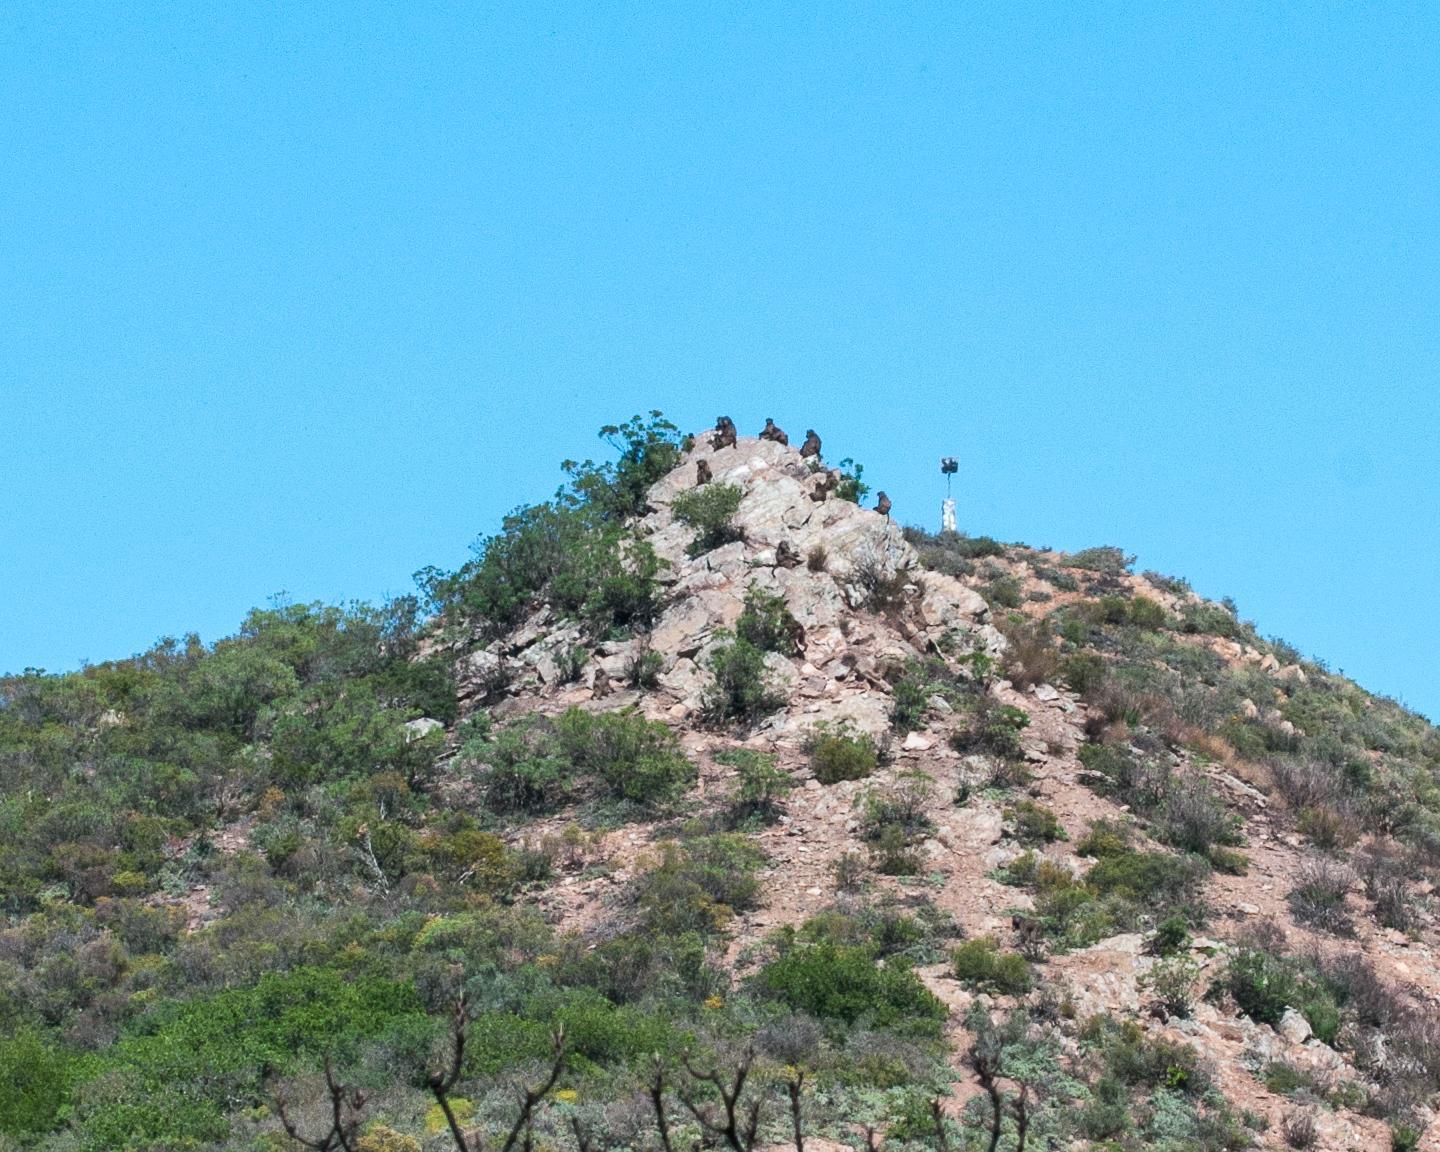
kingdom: Animalia
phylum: Chordata
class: Mammalia
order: Primates
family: Cercopithecidae
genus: Papio
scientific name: Papio ursinus
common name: Chacma baboon
